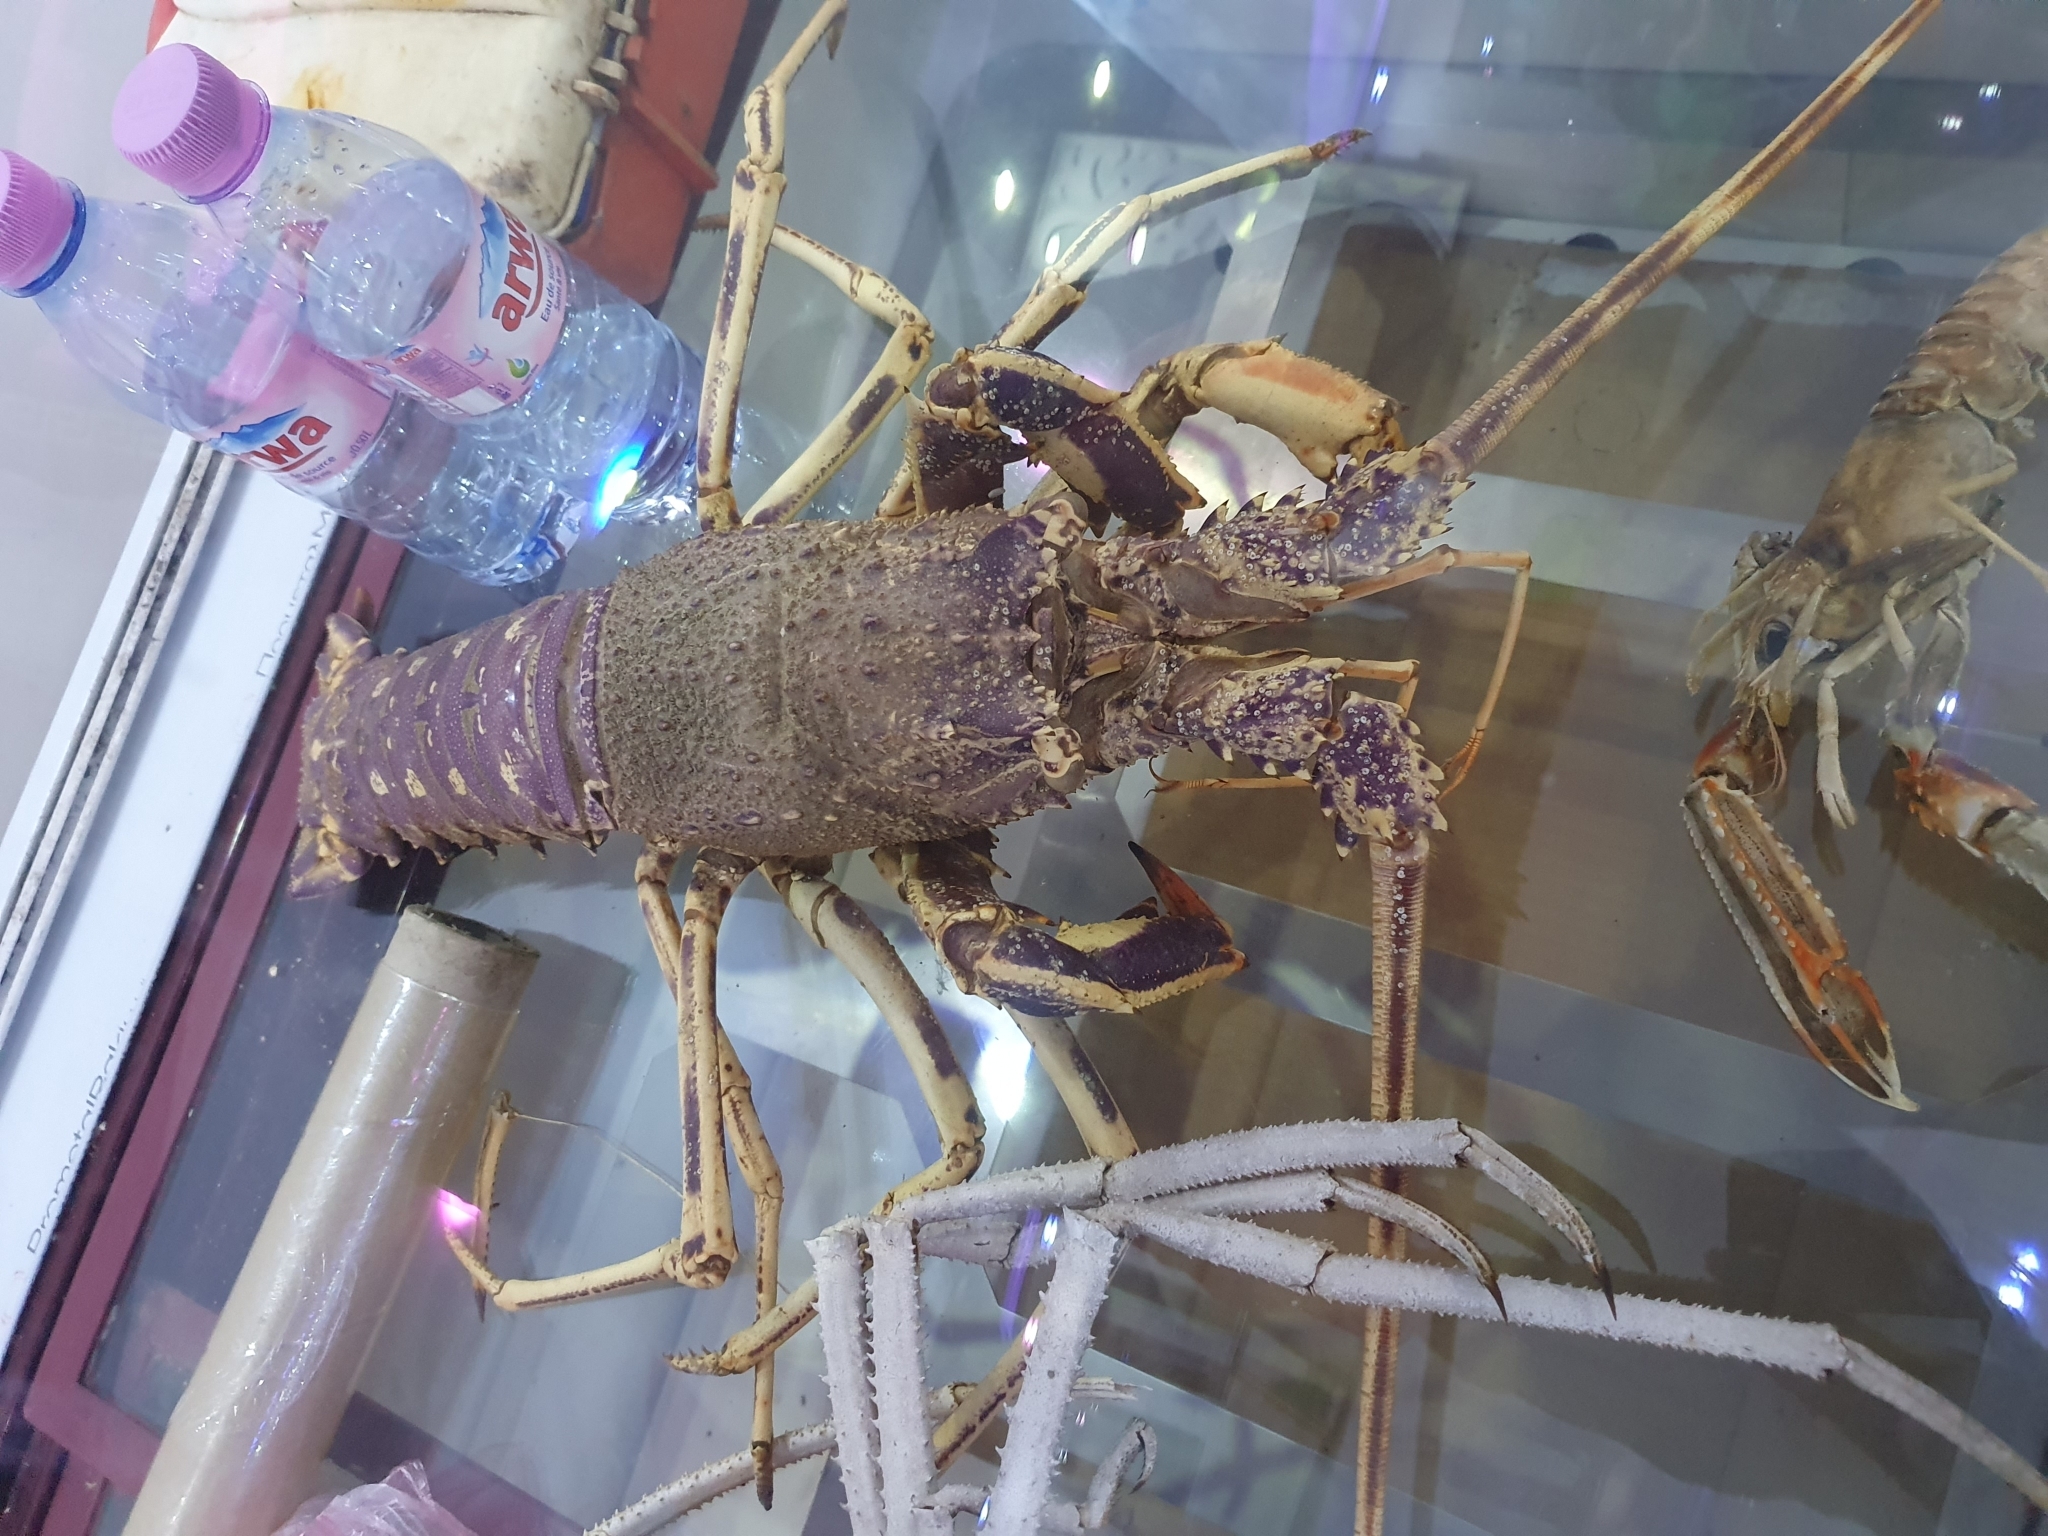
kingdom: Animalia
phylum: Arthropoda
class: Malacostraca
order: Decapoda
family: Palinuridae
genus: Palinurus
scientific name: Palinurus elephas
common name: European spiny lobster
